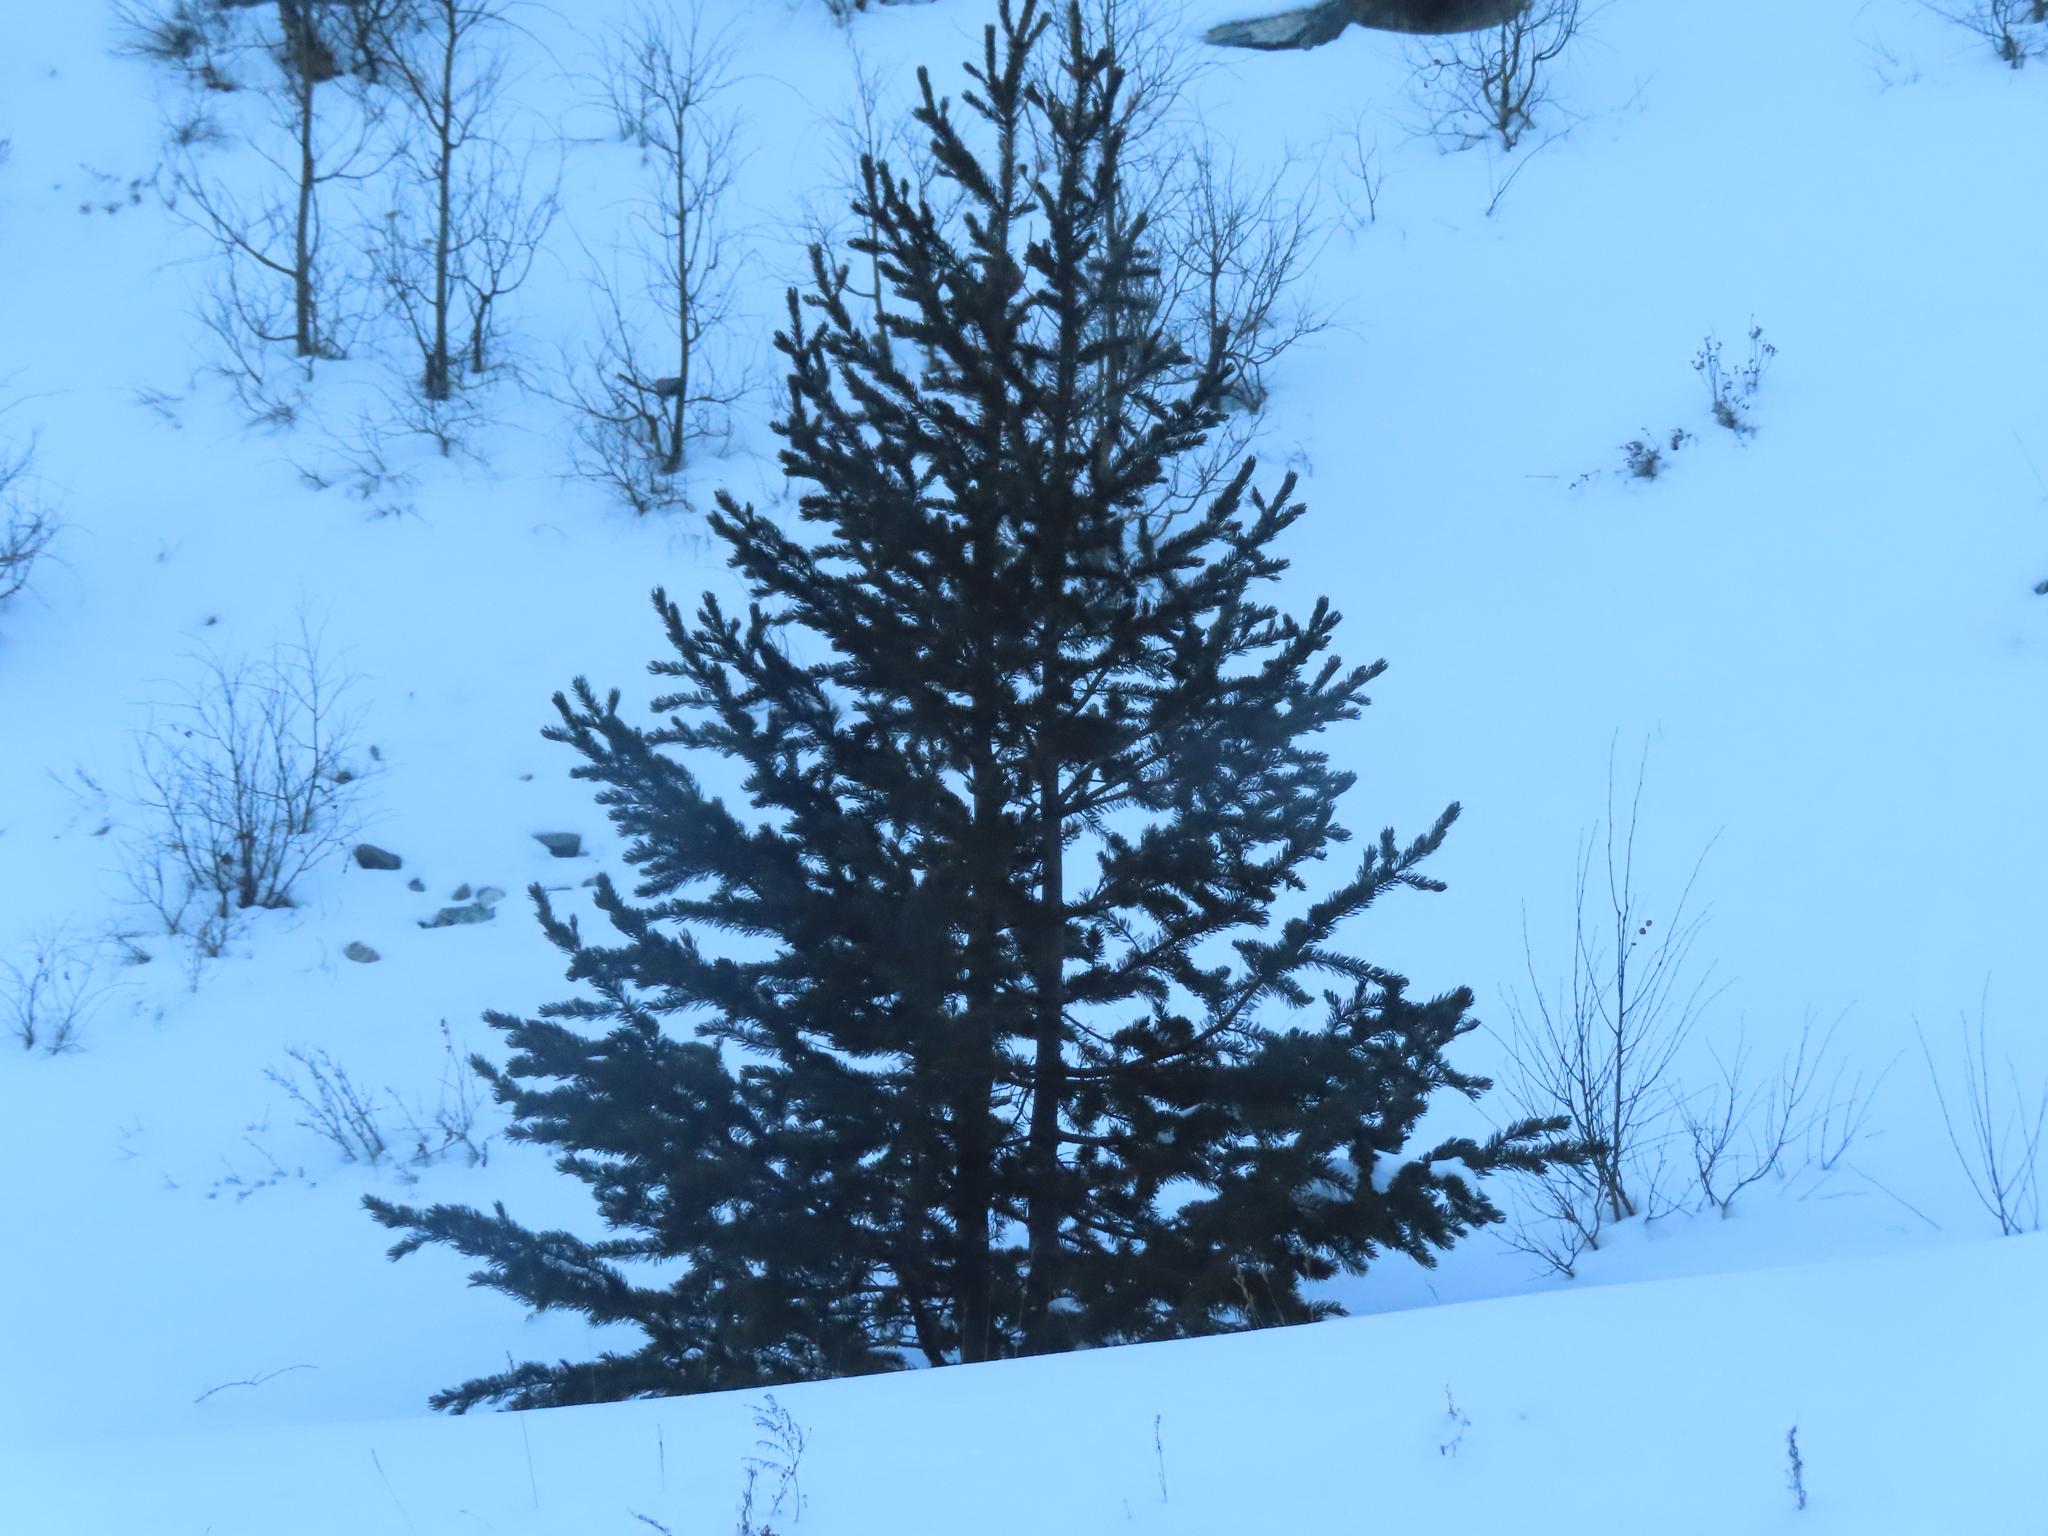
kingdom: Plantae
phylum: Tracheophyta
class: Pinopsida
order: Pinales
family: Pinaceae
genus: Picea
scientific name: Picea pungens
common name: Colorado spruce
